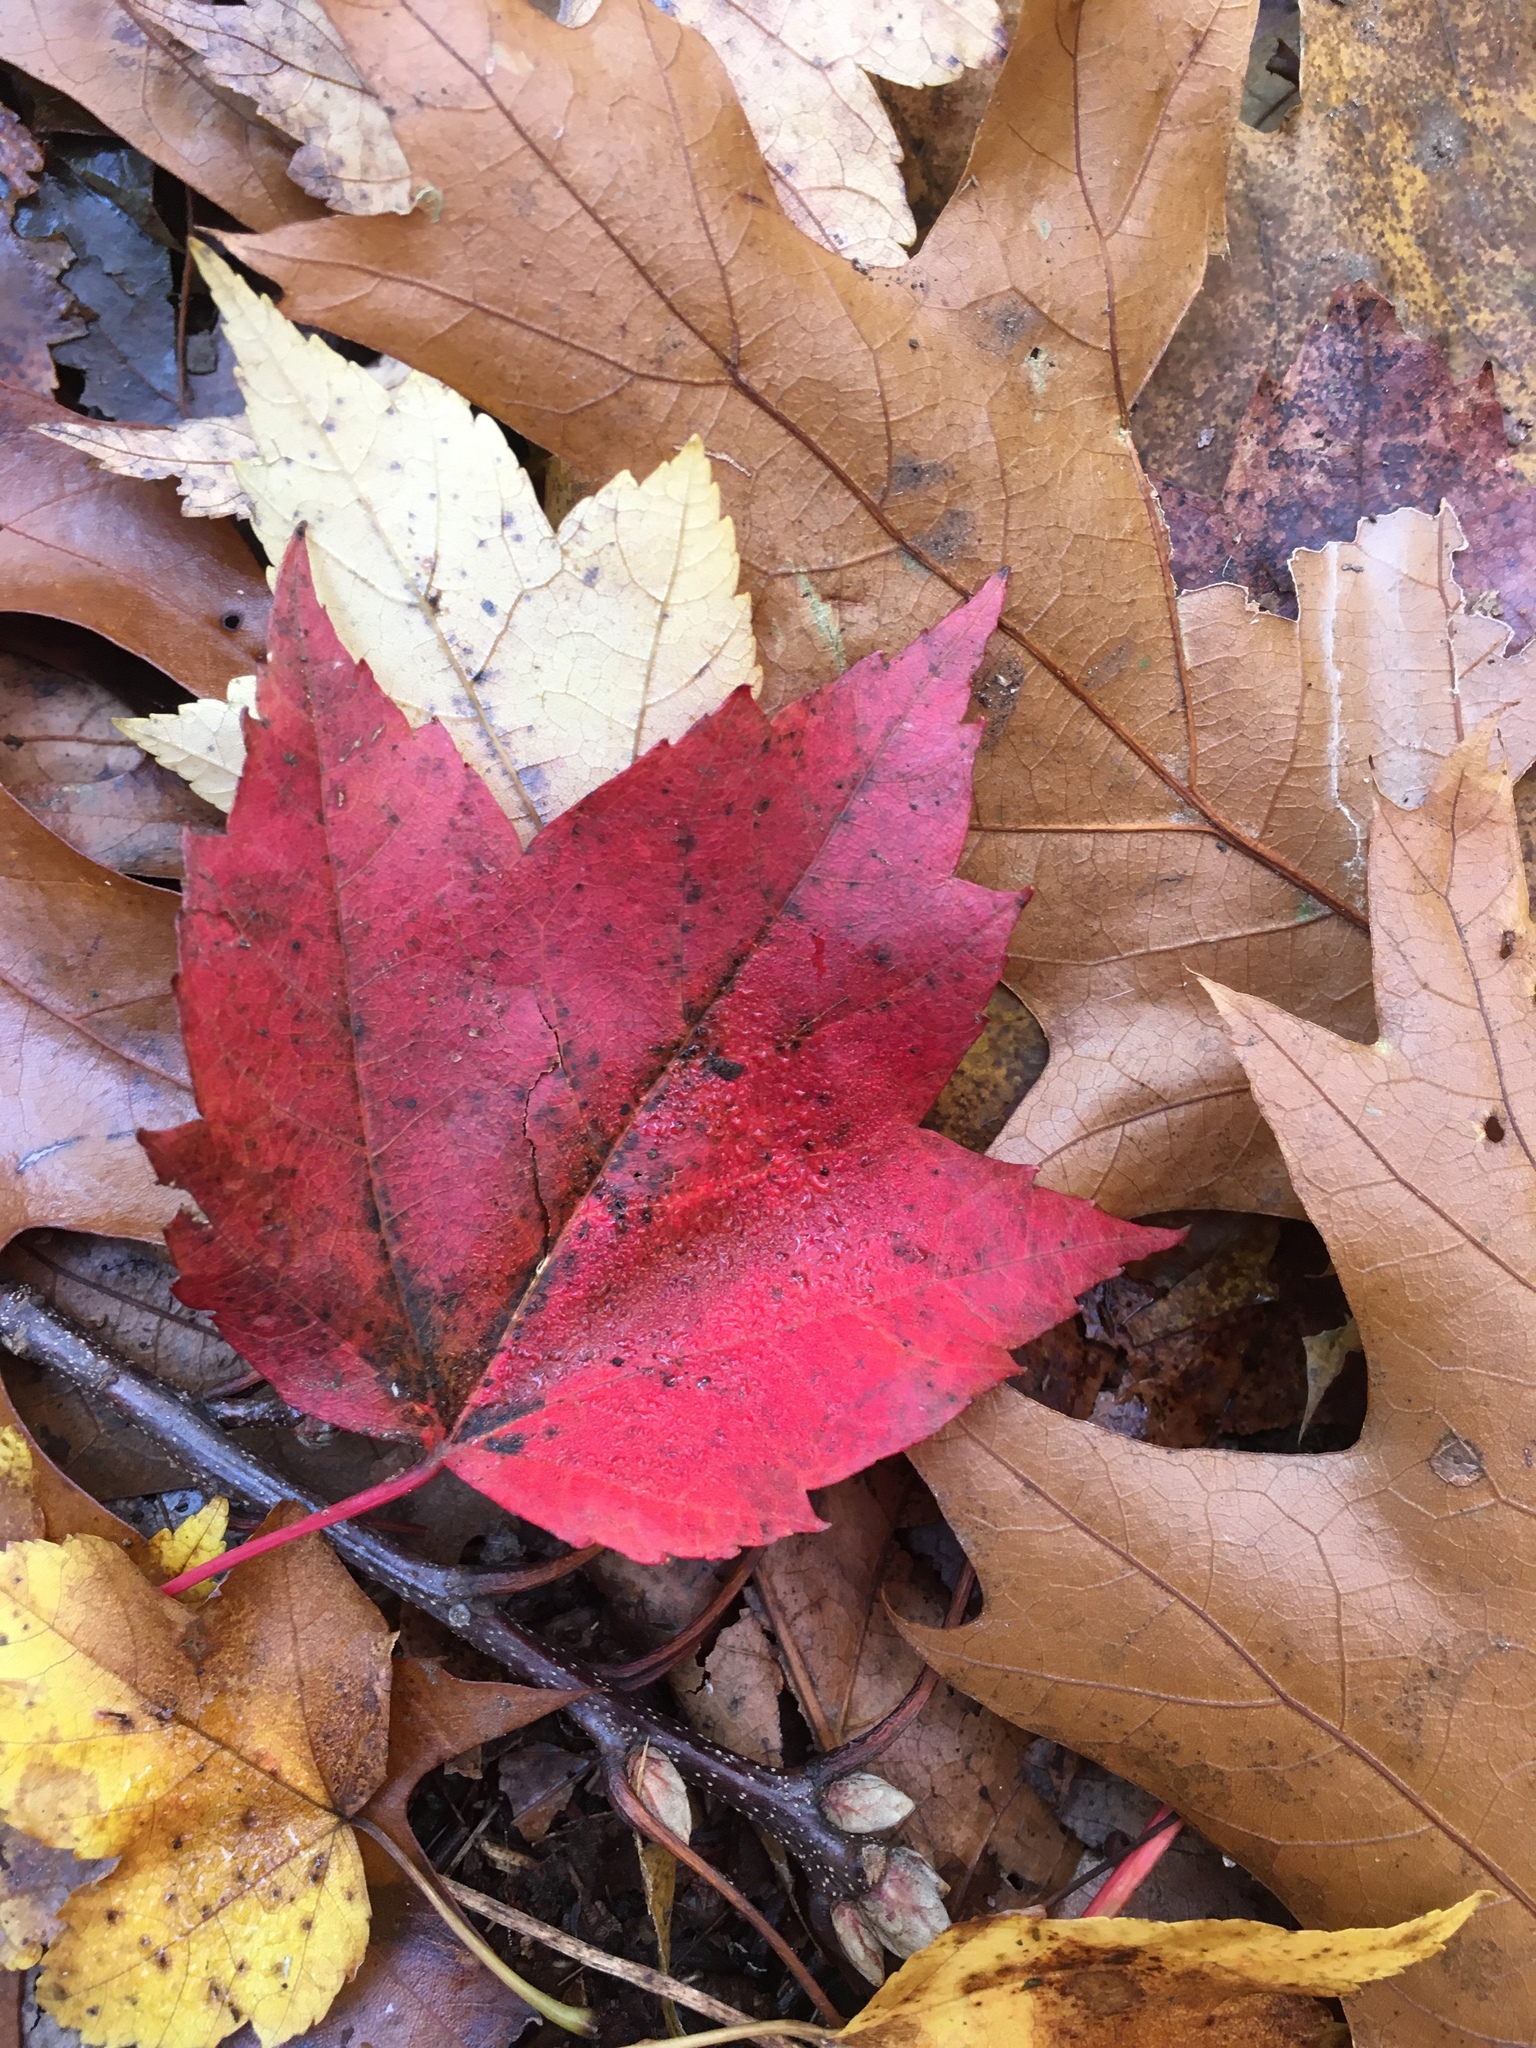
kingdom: Plantae
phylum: Tracheophyta
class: Magnoliopsida
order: Sapindales
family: Sapindaceae
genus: Acer
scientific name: Acer rubrum
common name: Red maple
